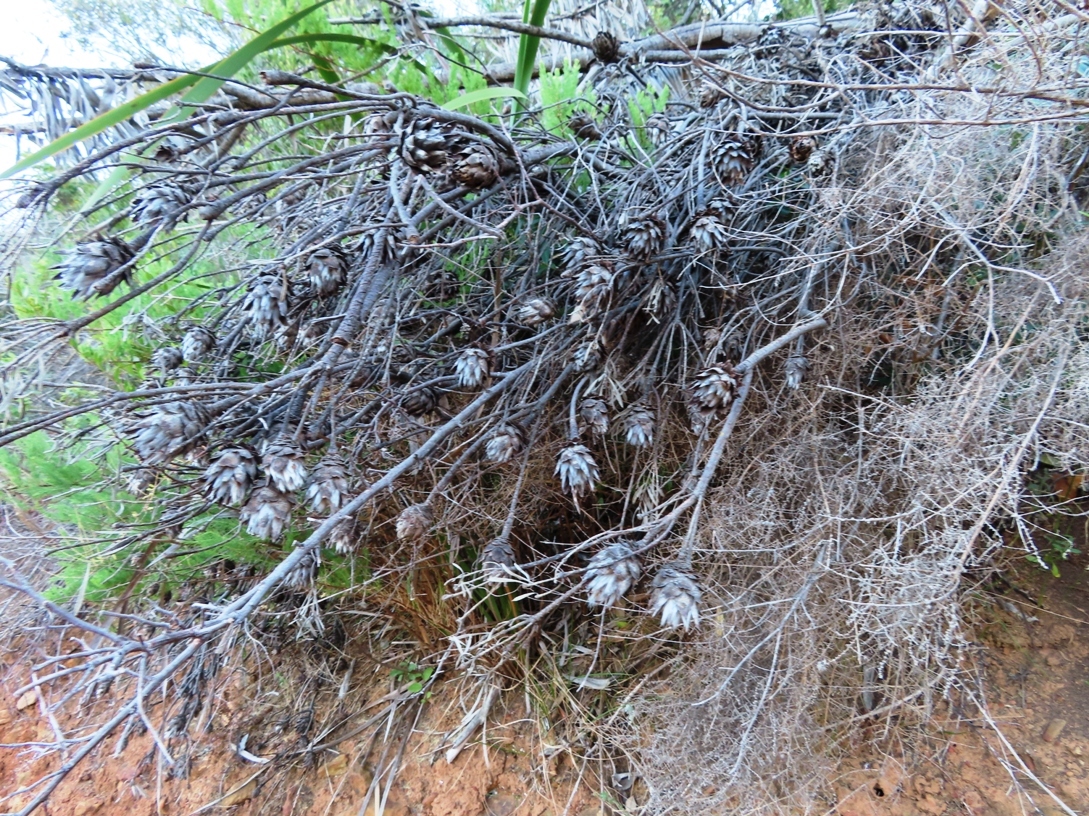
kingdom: Plantae
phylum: Tracheophyta
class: Magnoliopsida
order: Proteales
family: Proteaceae
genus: Leucadendron
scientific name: Leucadendron rubrum
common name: Spinning top
